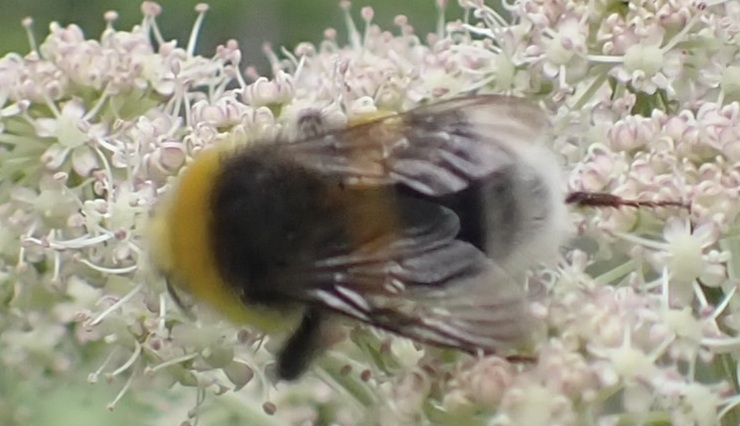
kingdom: Animalia
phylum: Arthropoda
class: Insecta
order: Hymenoptera
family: Apidae
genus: Bombus
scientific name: Bombus lucorum
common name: White-tailed bumblebee
